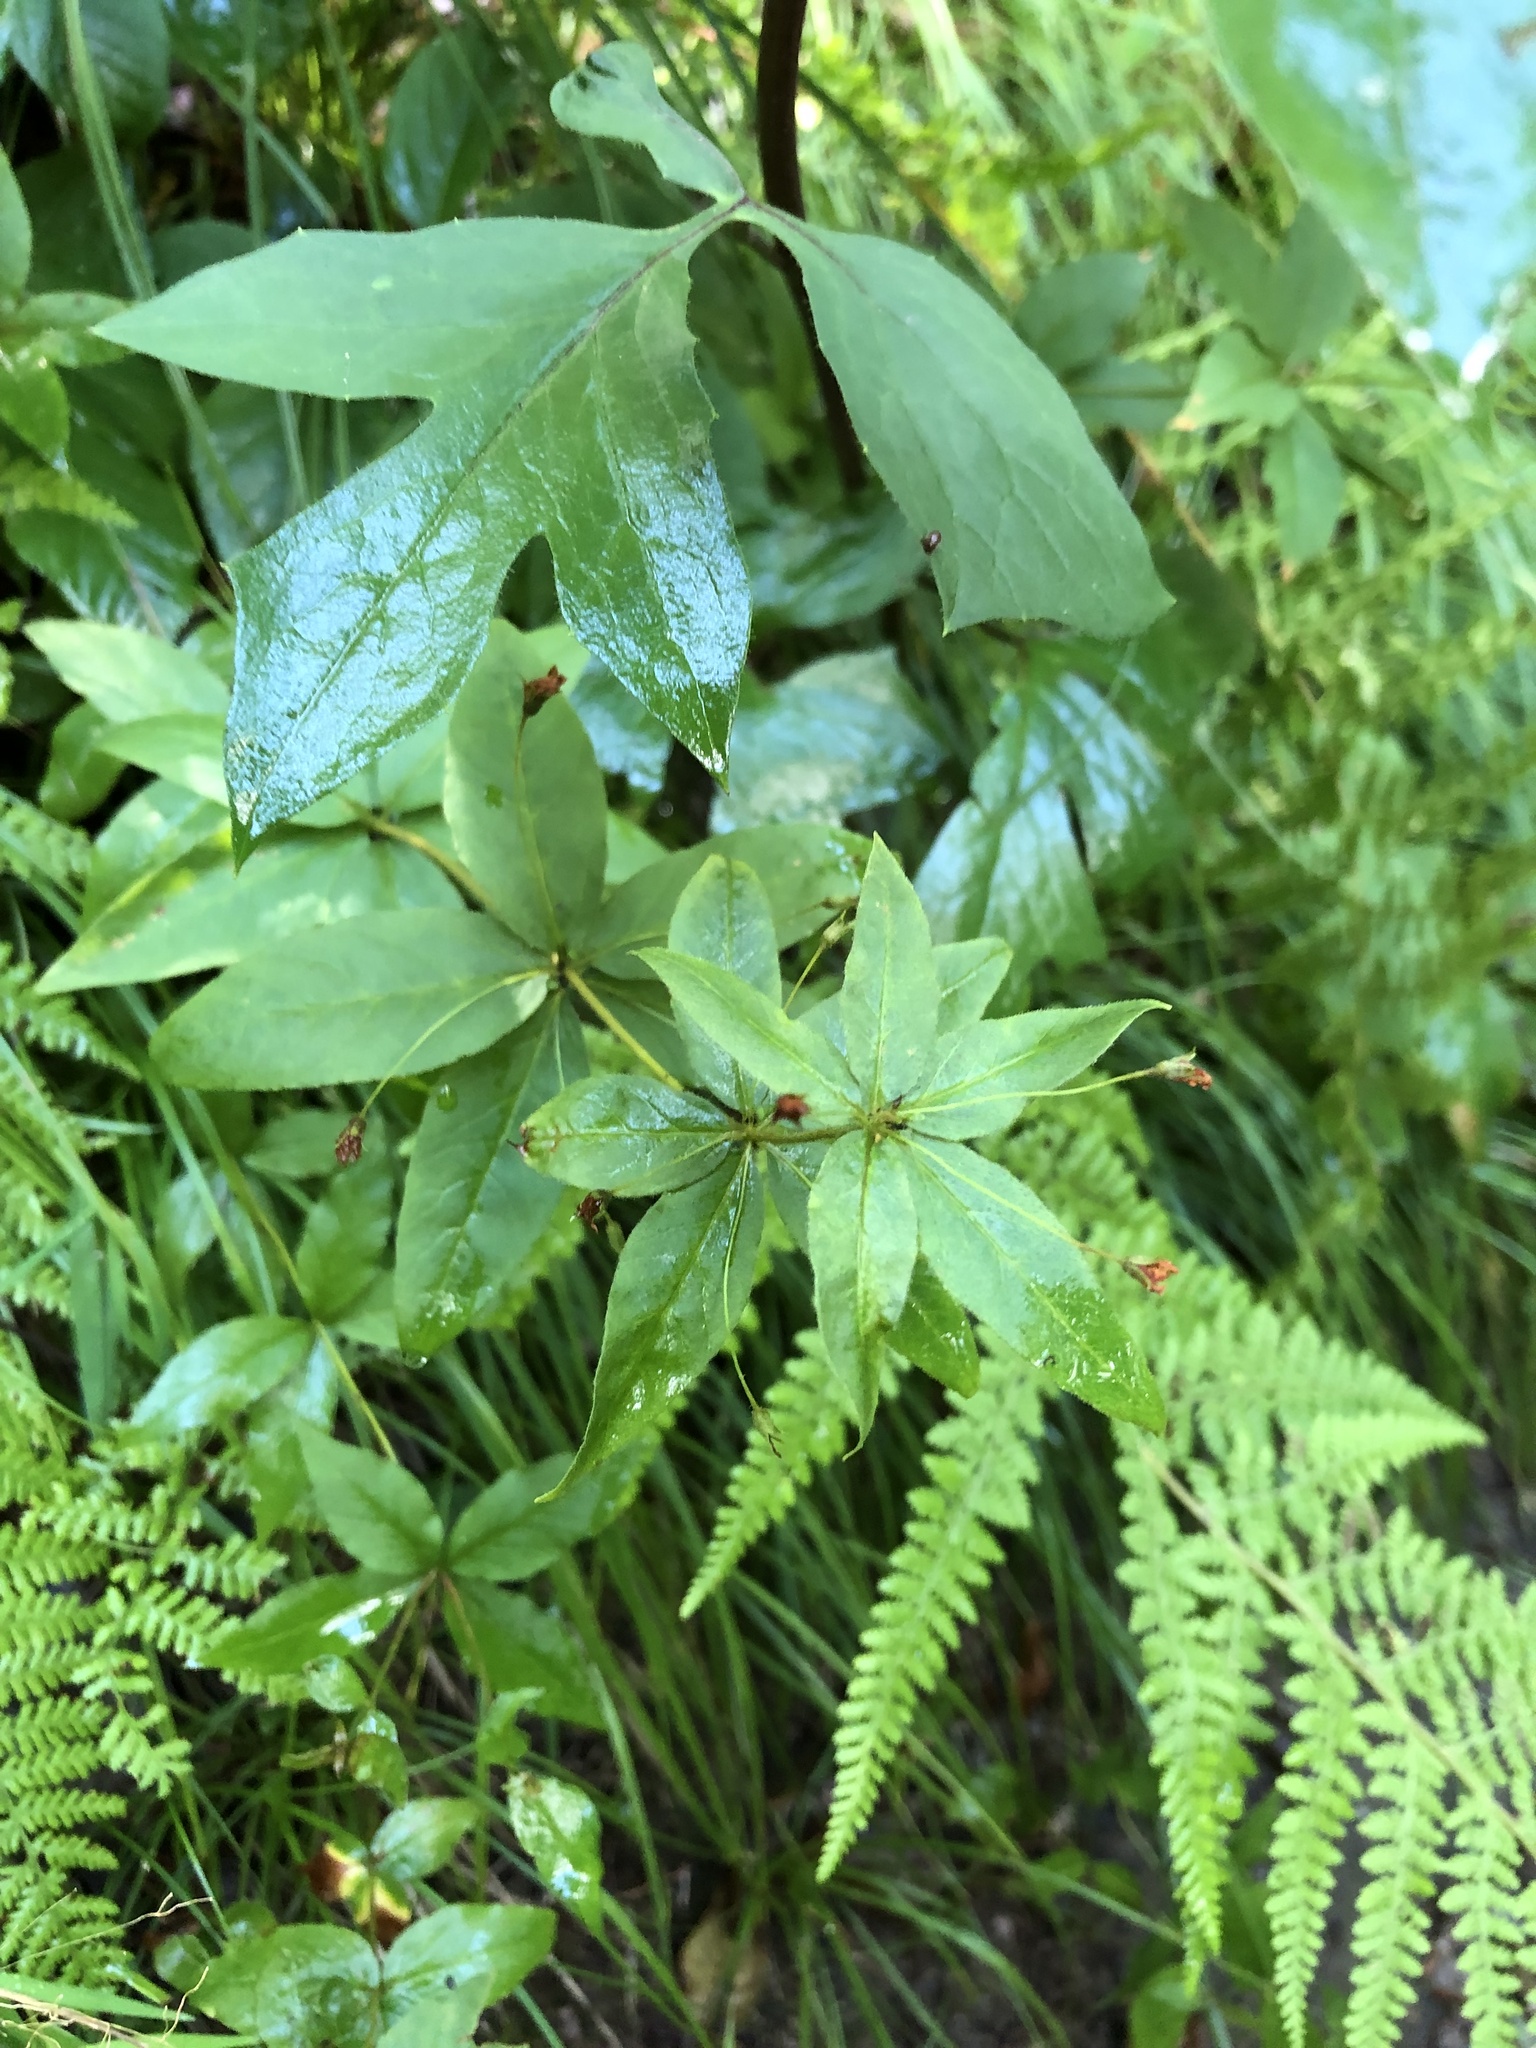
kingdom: Plantae
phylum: Tracheophyta
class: Magnoliopsida
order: Ericales
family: Primulaceae
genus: Lysimachia
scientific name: Lysimachia quadrifolia
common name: Whorled loosestrife
